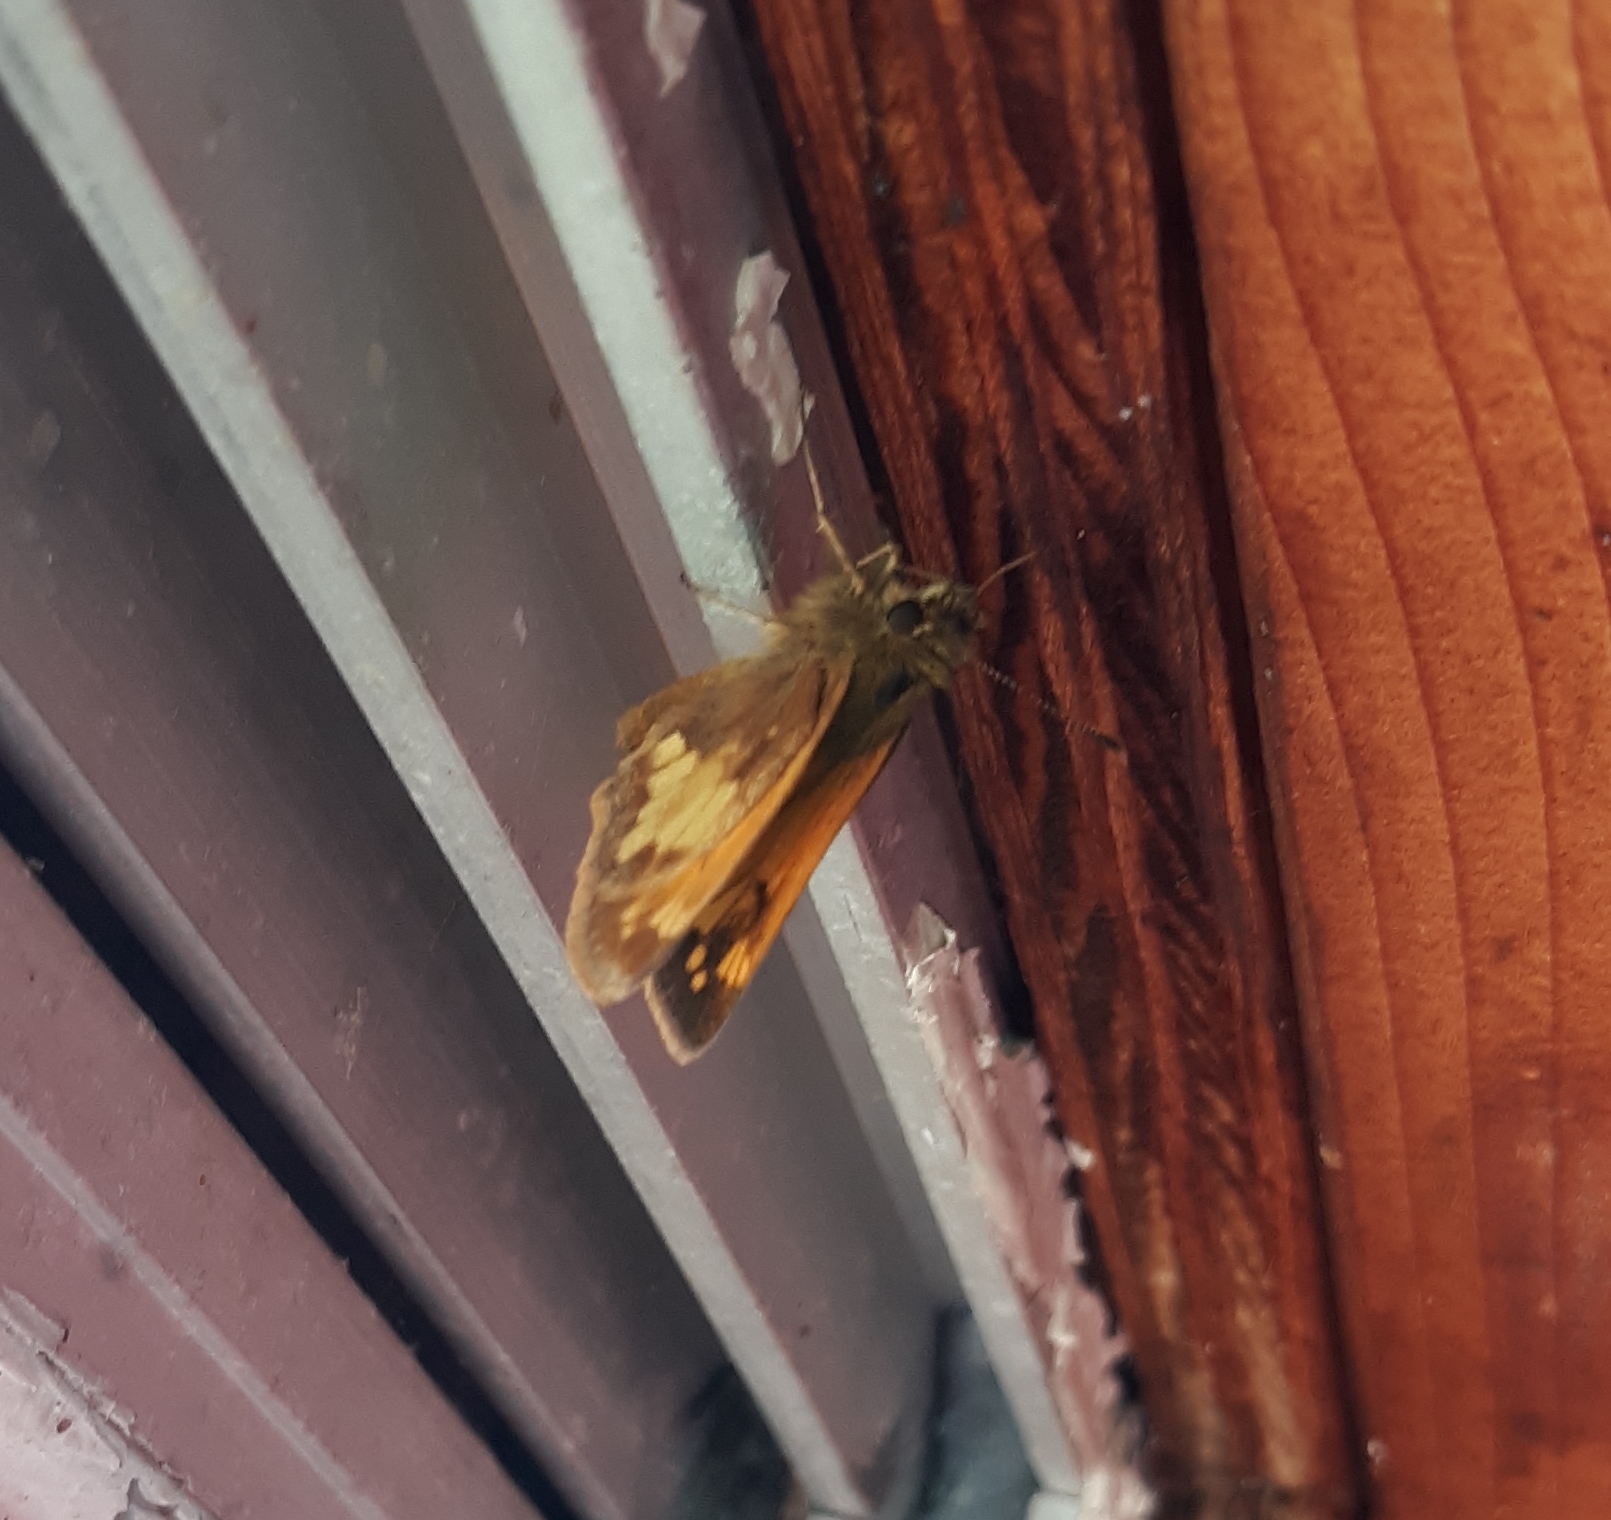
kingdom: Animalia
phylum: Arthropoda
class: Insecta
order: Lepidoptera
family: Hesperiidae
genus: Lon
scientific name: Lon hobomok
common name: Hobomok skipper
